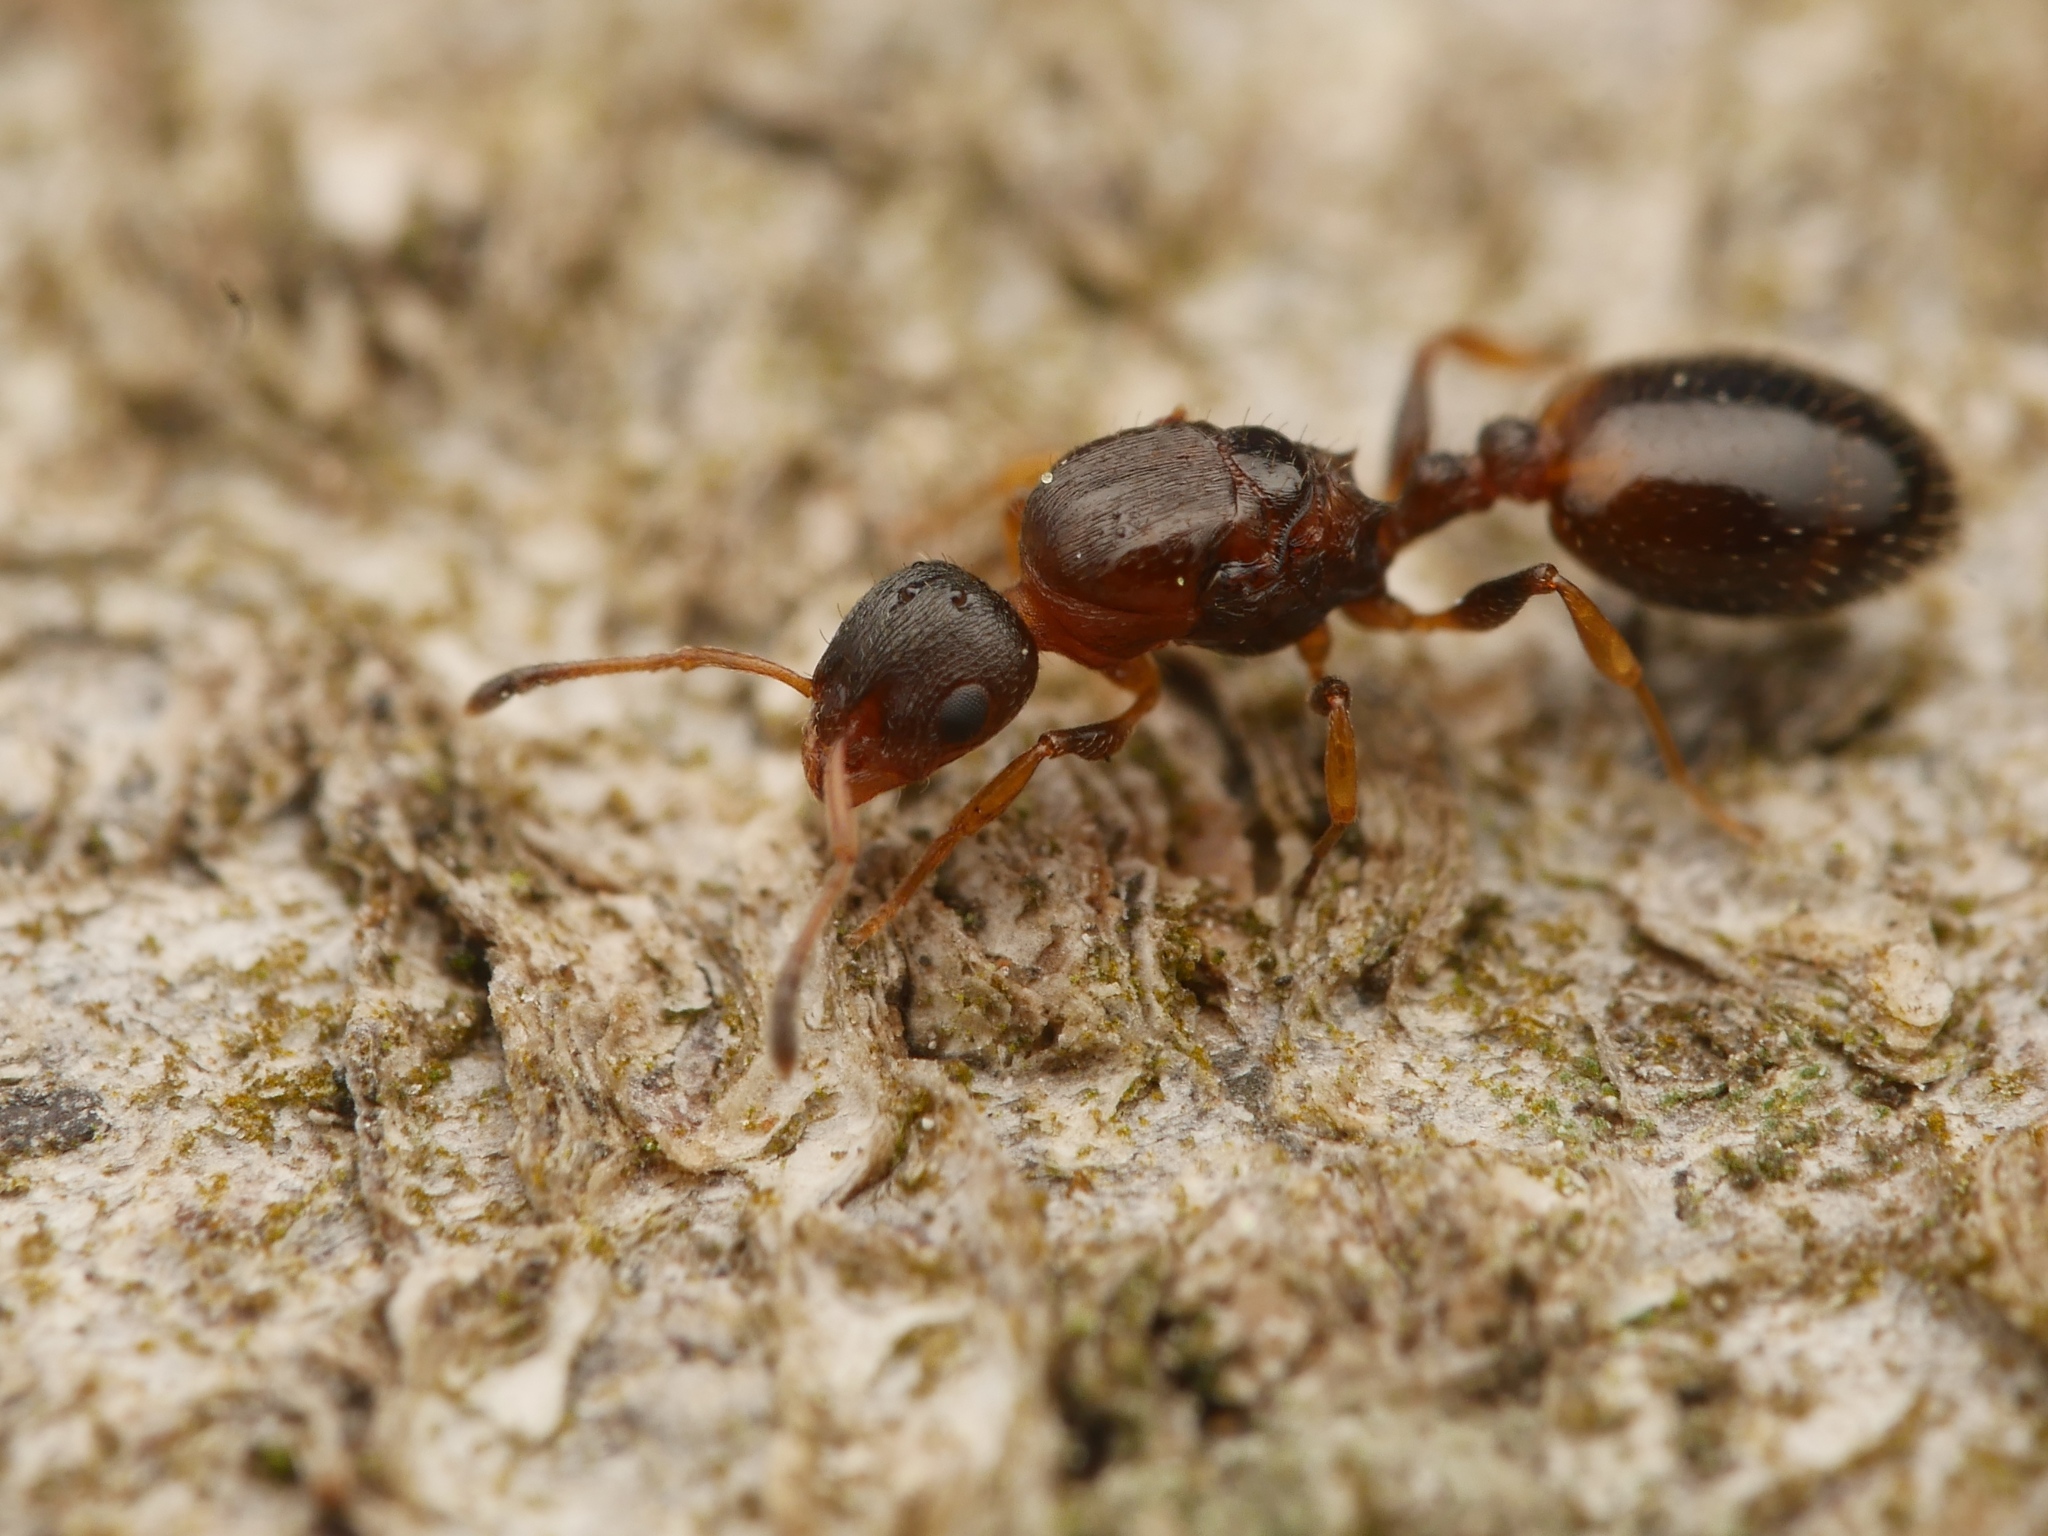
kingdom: Animalia
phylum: Arthropoda
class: Insecta
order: Hymenoptera
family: Formicidae
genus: Leptothorax
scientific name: Leptothorax affinis
